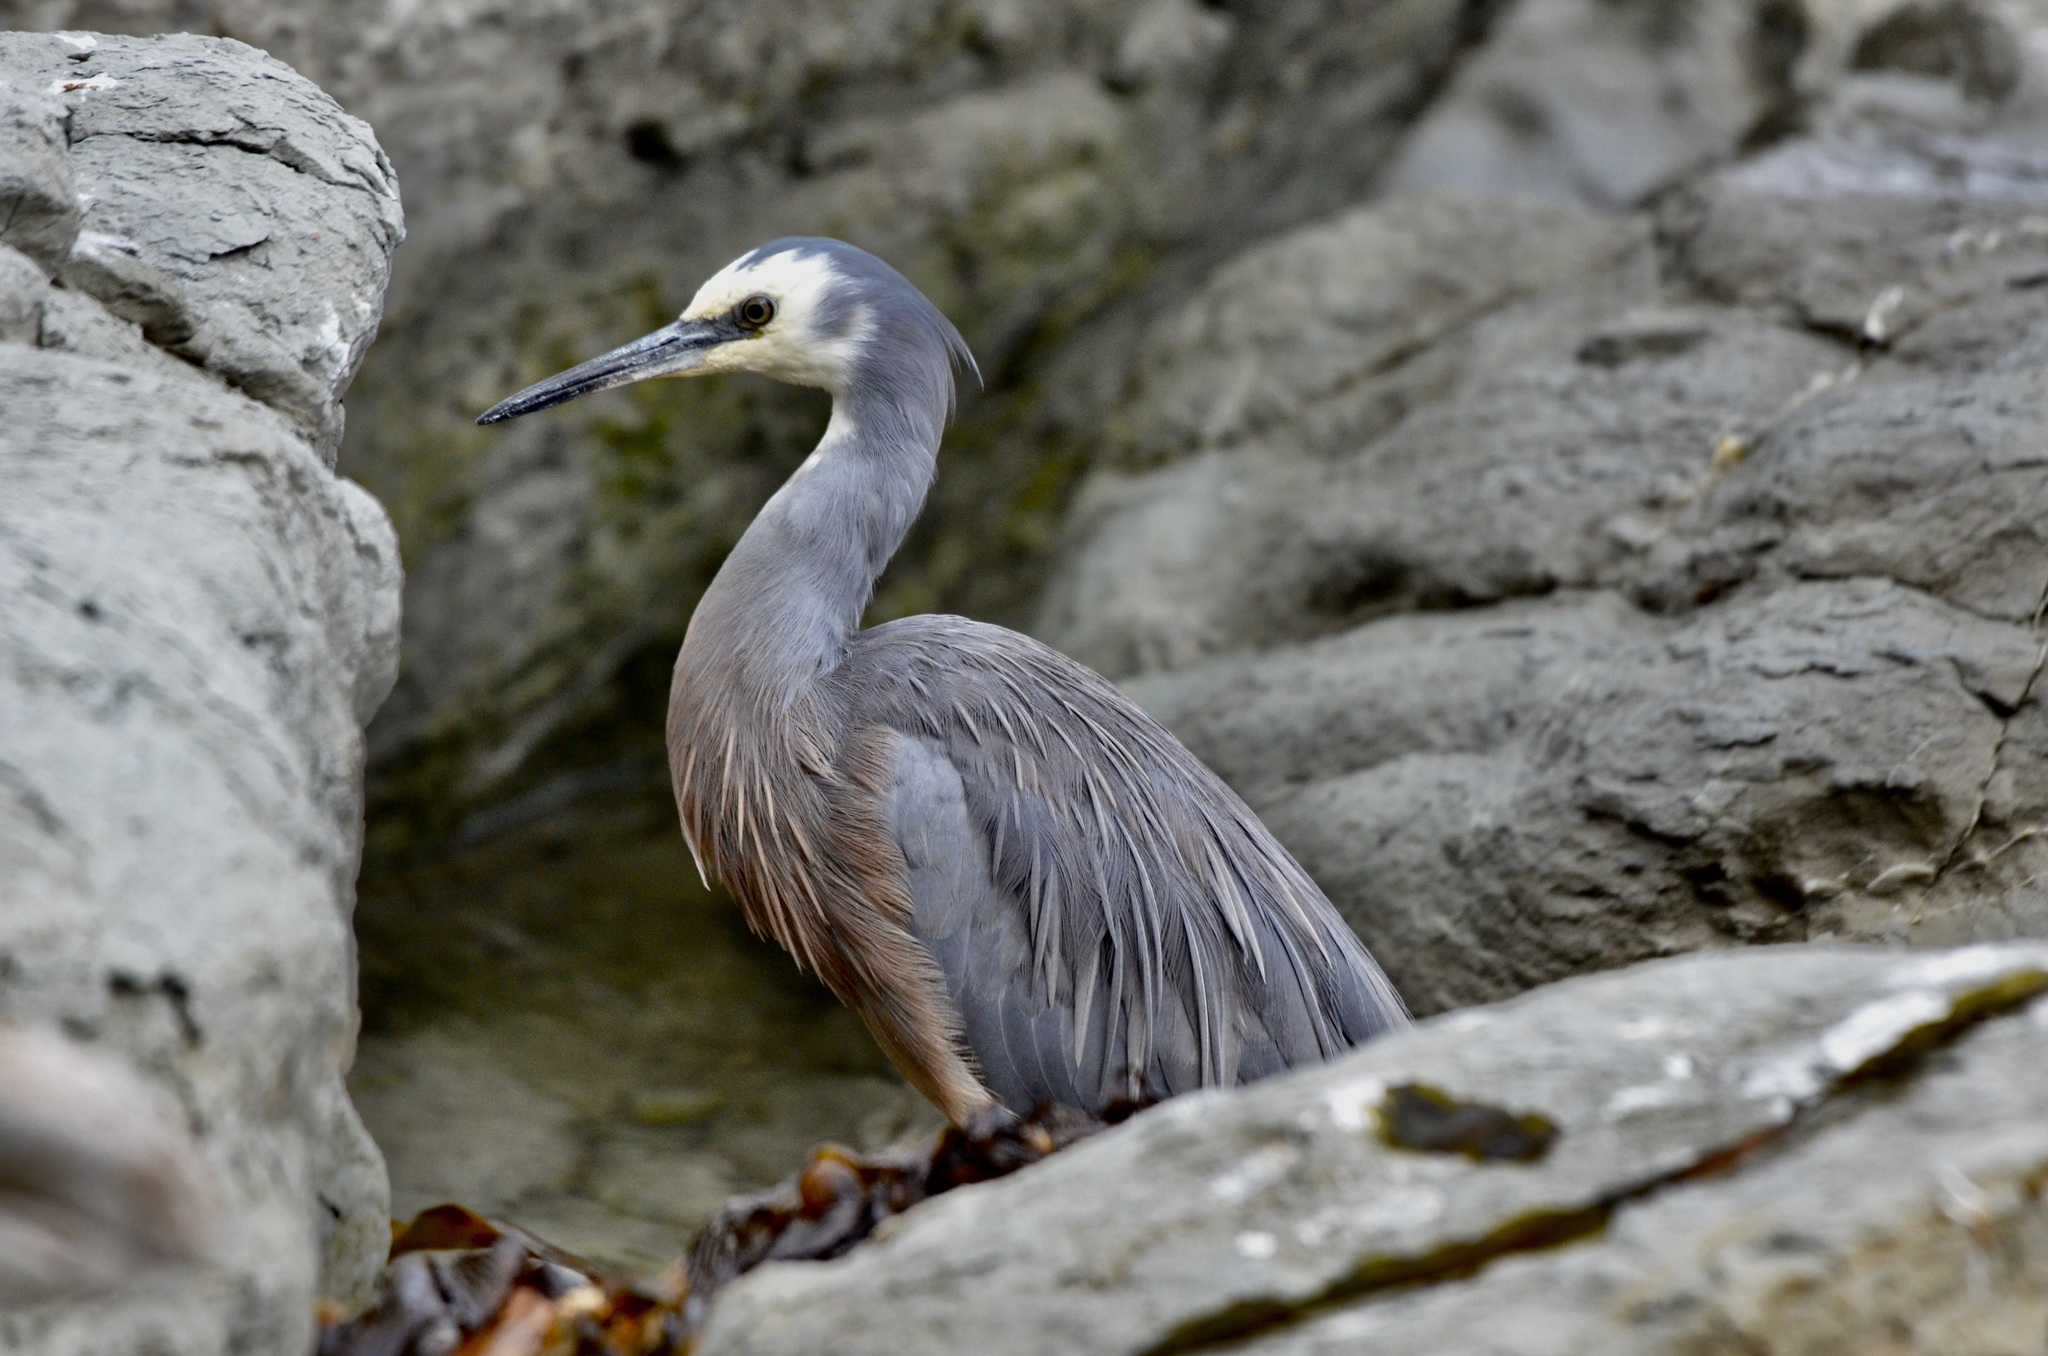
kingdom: Animalia
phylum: Chordata
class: Aves
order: Pelecaniformes
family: Ardeidae
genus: Egretta
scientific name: Egretta novaehollandiae
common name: White-faced heron
